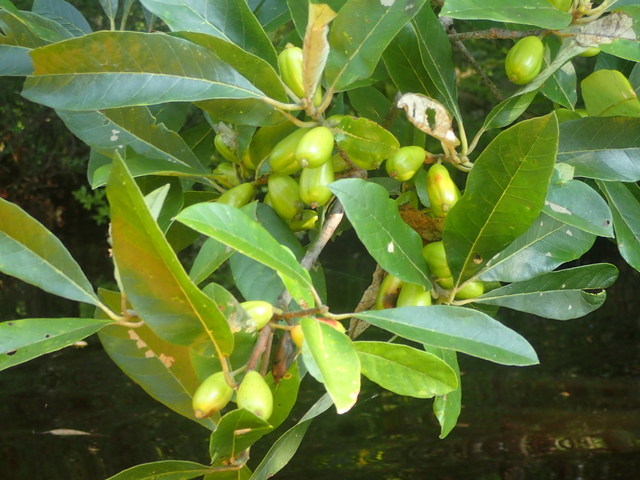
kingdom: Plantae
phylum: Tracheophyta
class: Magnoliopsida
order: Cornales
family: Nyssaceae
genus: Nyssa
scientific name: Nyssa ogeche
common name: Ogeechee tupelo
